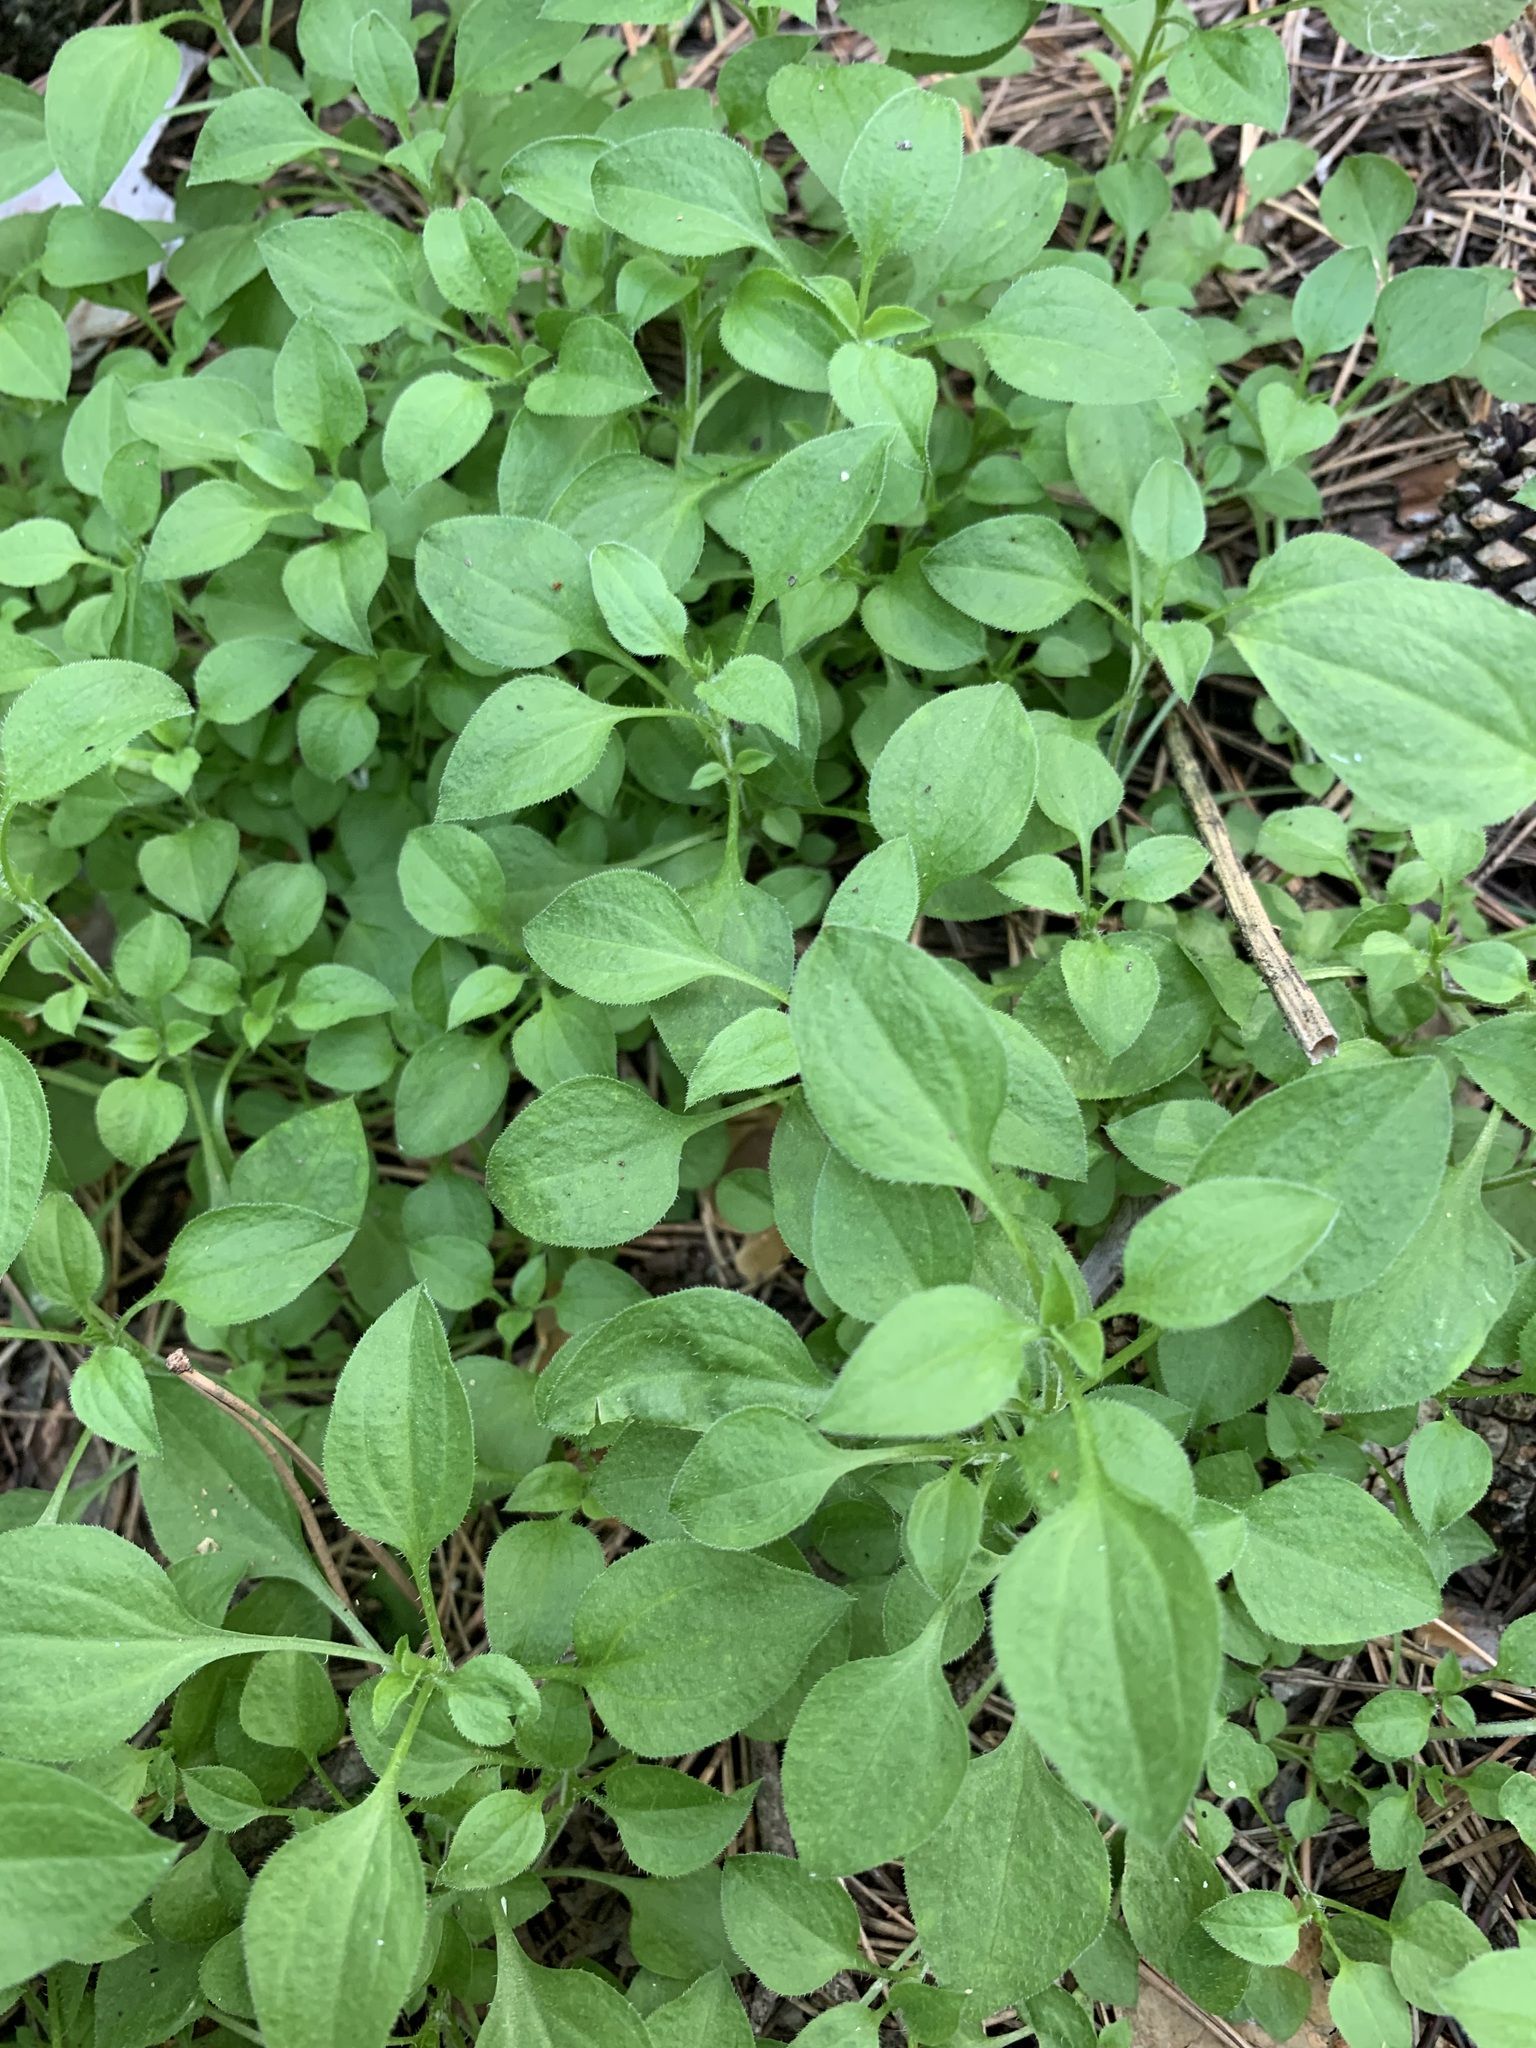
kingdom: Plantae
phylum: Tracheophyta
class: Magnoliopsida
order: Caryophyllales
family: Caryophyllaceae
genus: Moehringia
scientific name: Moehringia trinervia
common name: Three-nerved sandwort
